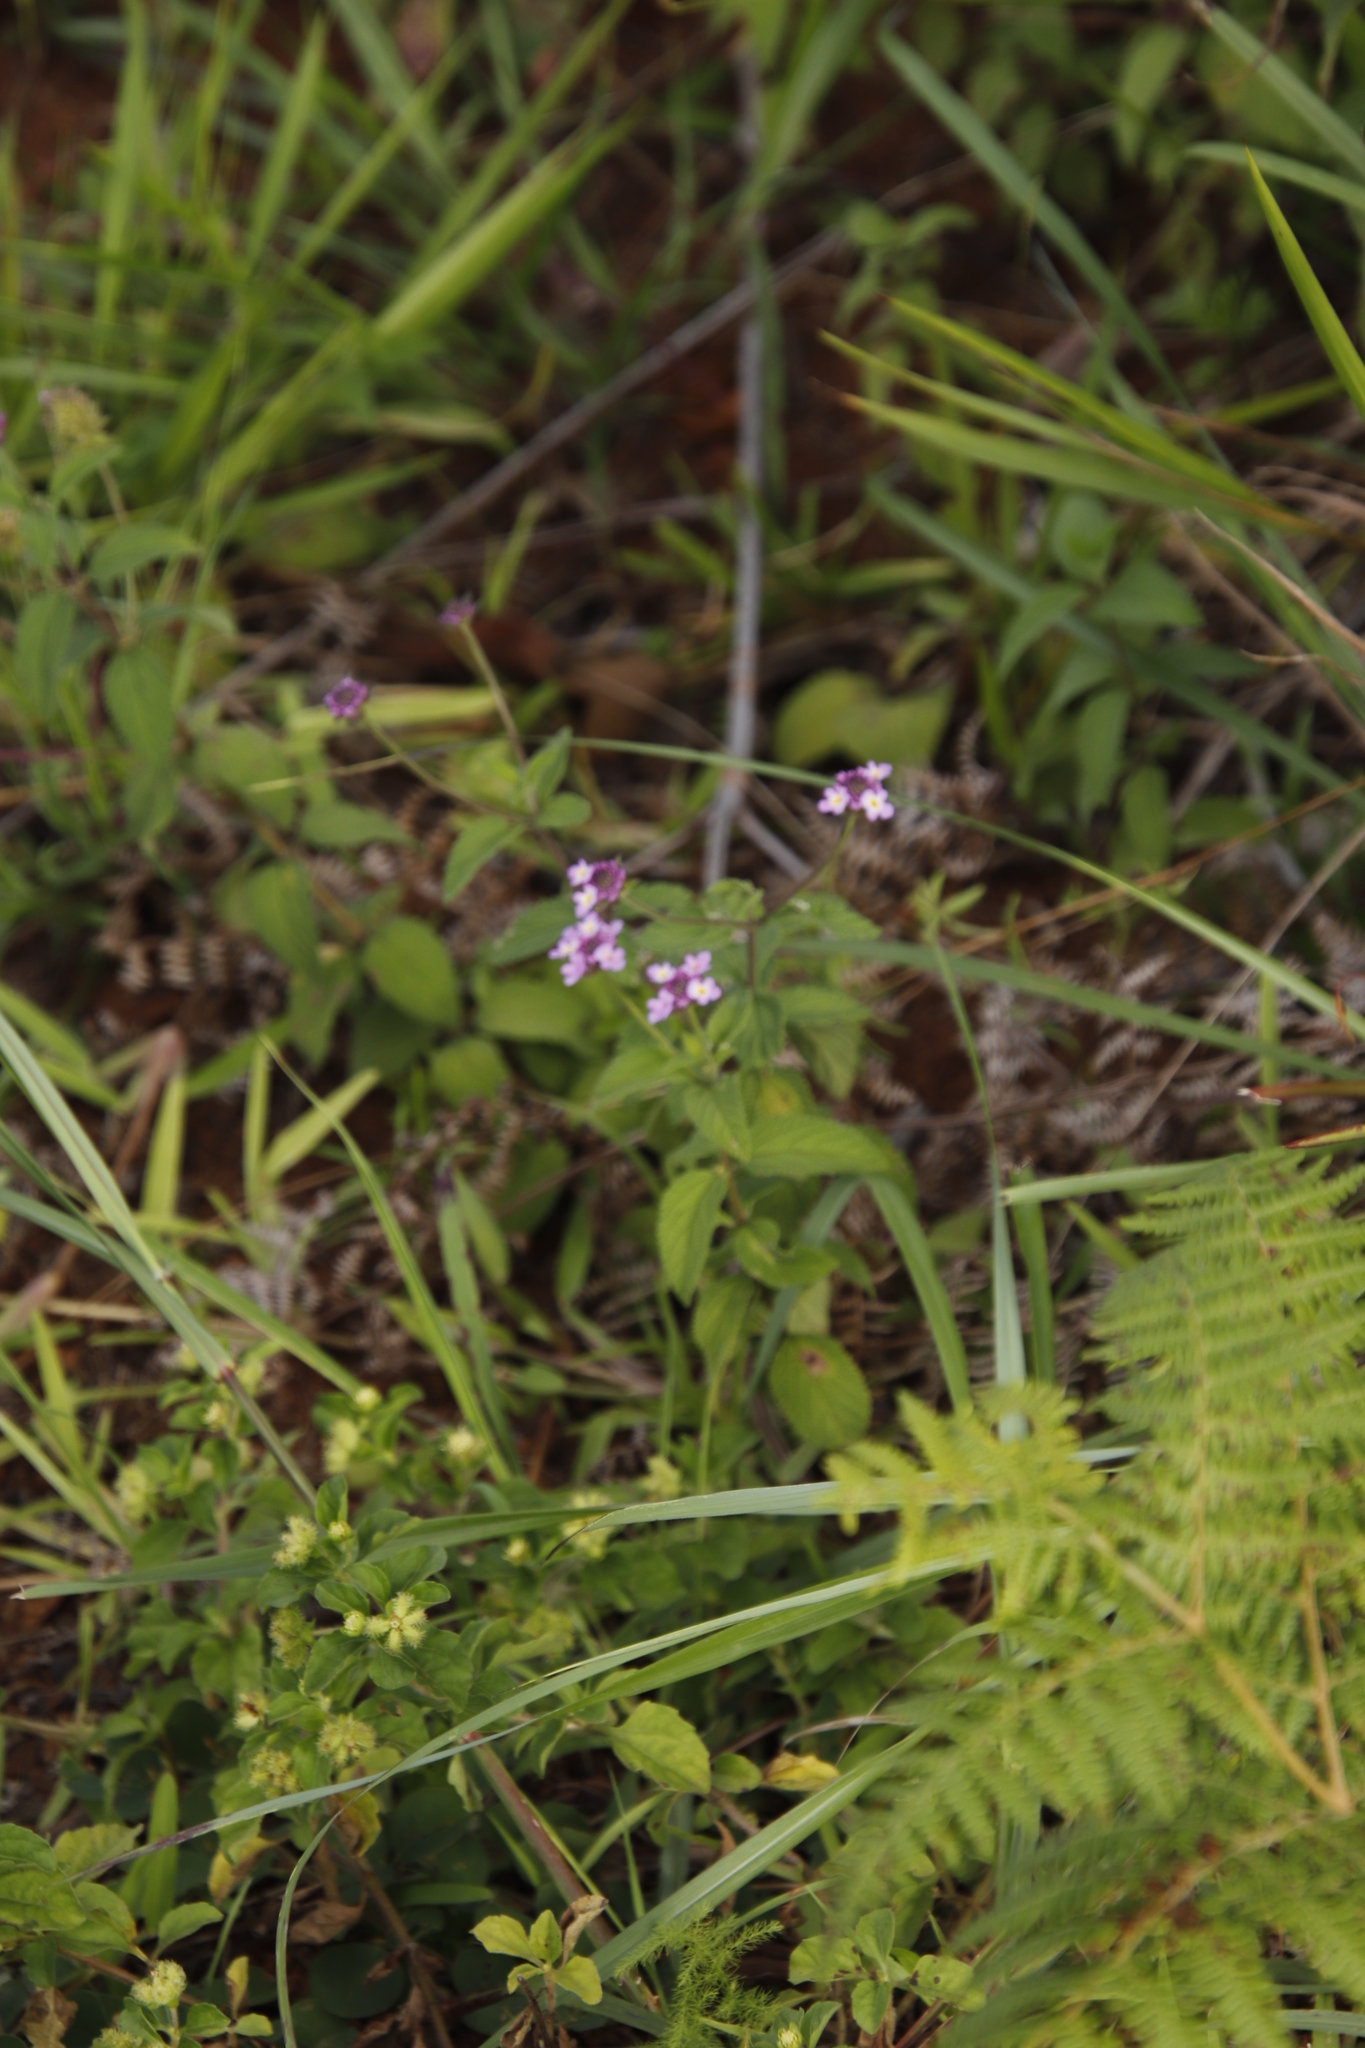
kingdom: Plantae
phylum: Tracheophyta
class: Magnoliopsida
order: Lamiales
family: Verbenaceae
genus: Lantana
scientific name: Lantana rugosa
